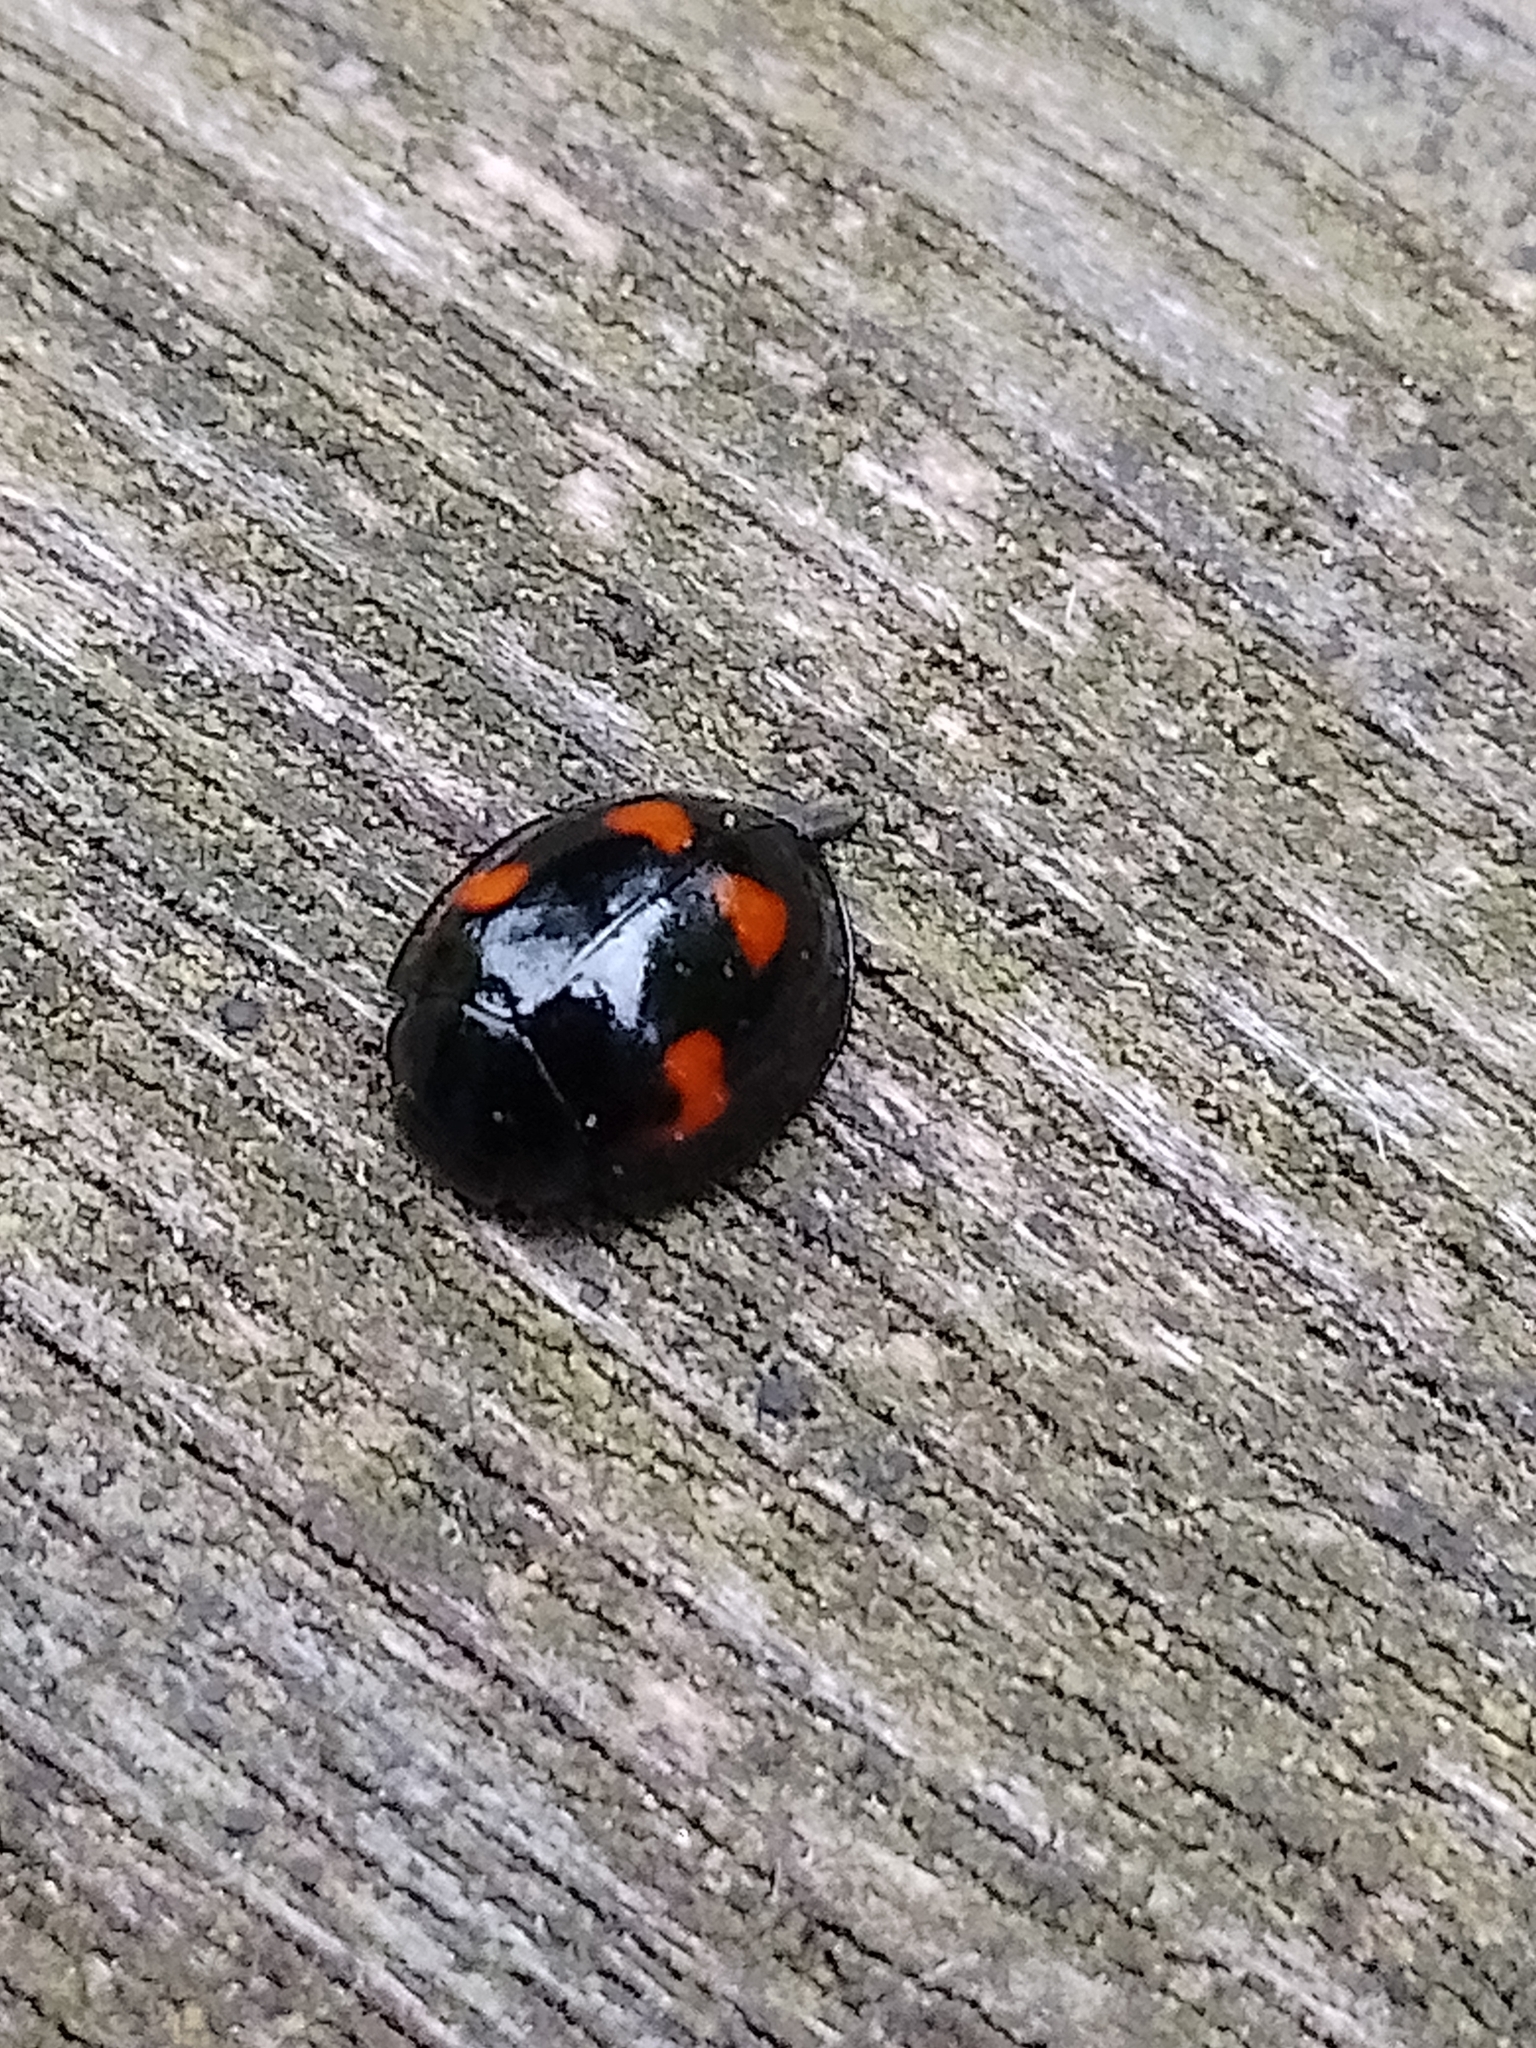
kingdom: Animalia
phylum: Arthropoda
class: Insecta
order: Coleoptera
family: Coccinellidae
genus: Brumus
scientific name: Brumus quadripustulatus
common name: Ladybird beetle
